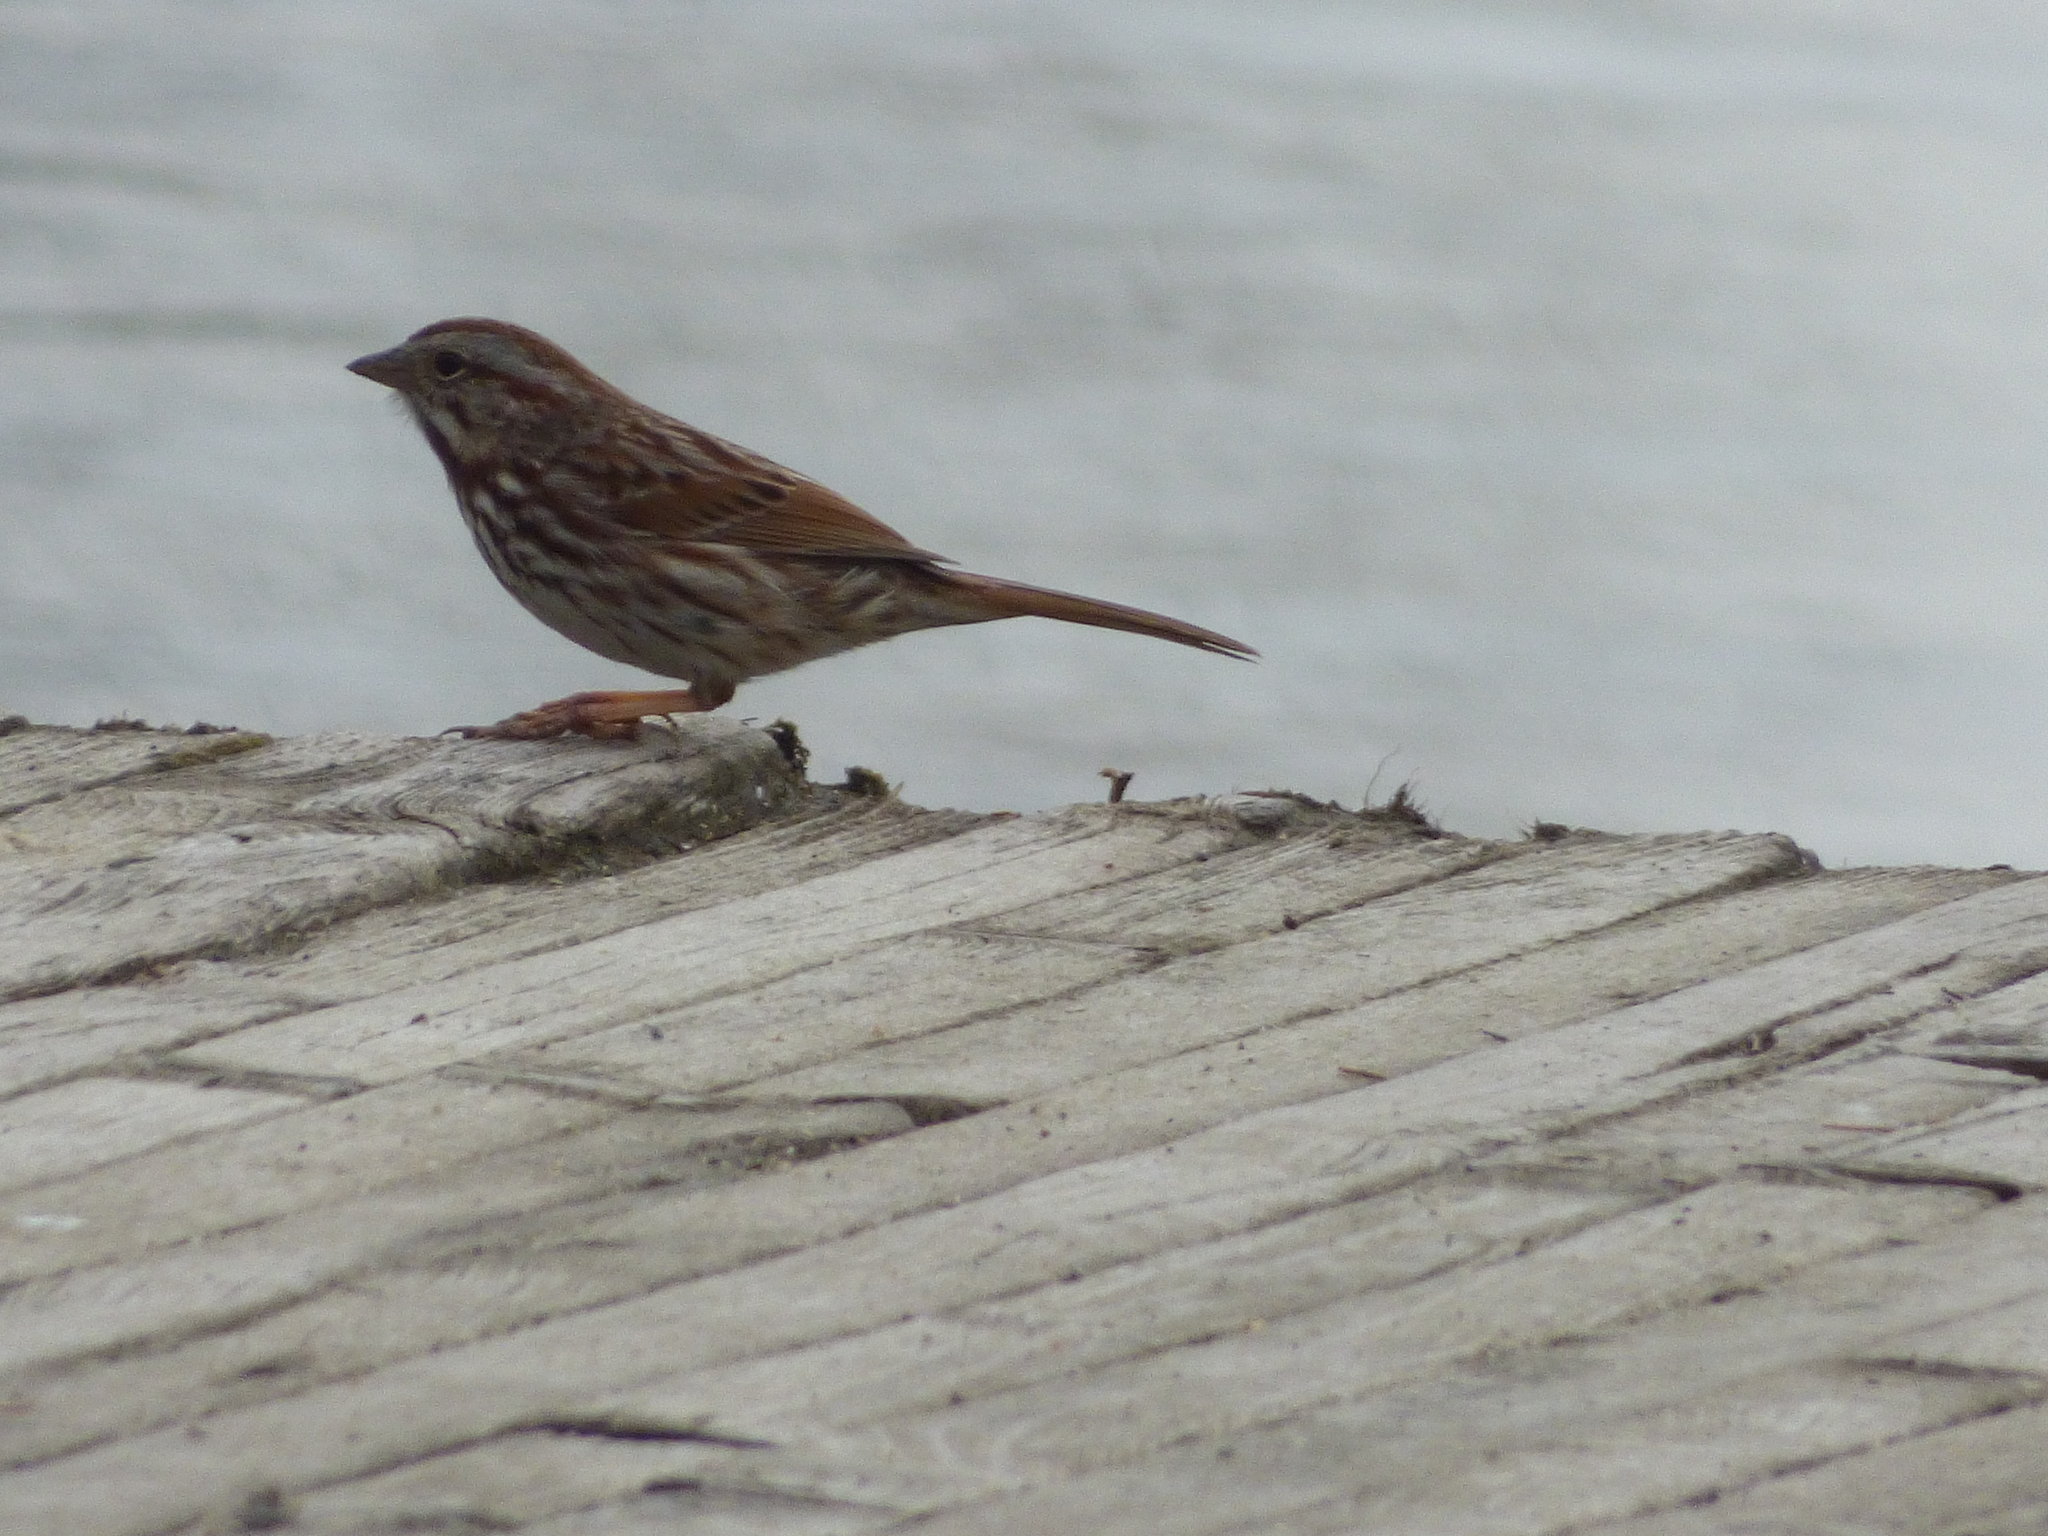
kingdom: Animalia
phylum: Chordata
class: Aves
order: Passeriformes
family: Passerellidae
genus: Melospiza
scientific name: Melospiza melodia
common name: Song sparrow
